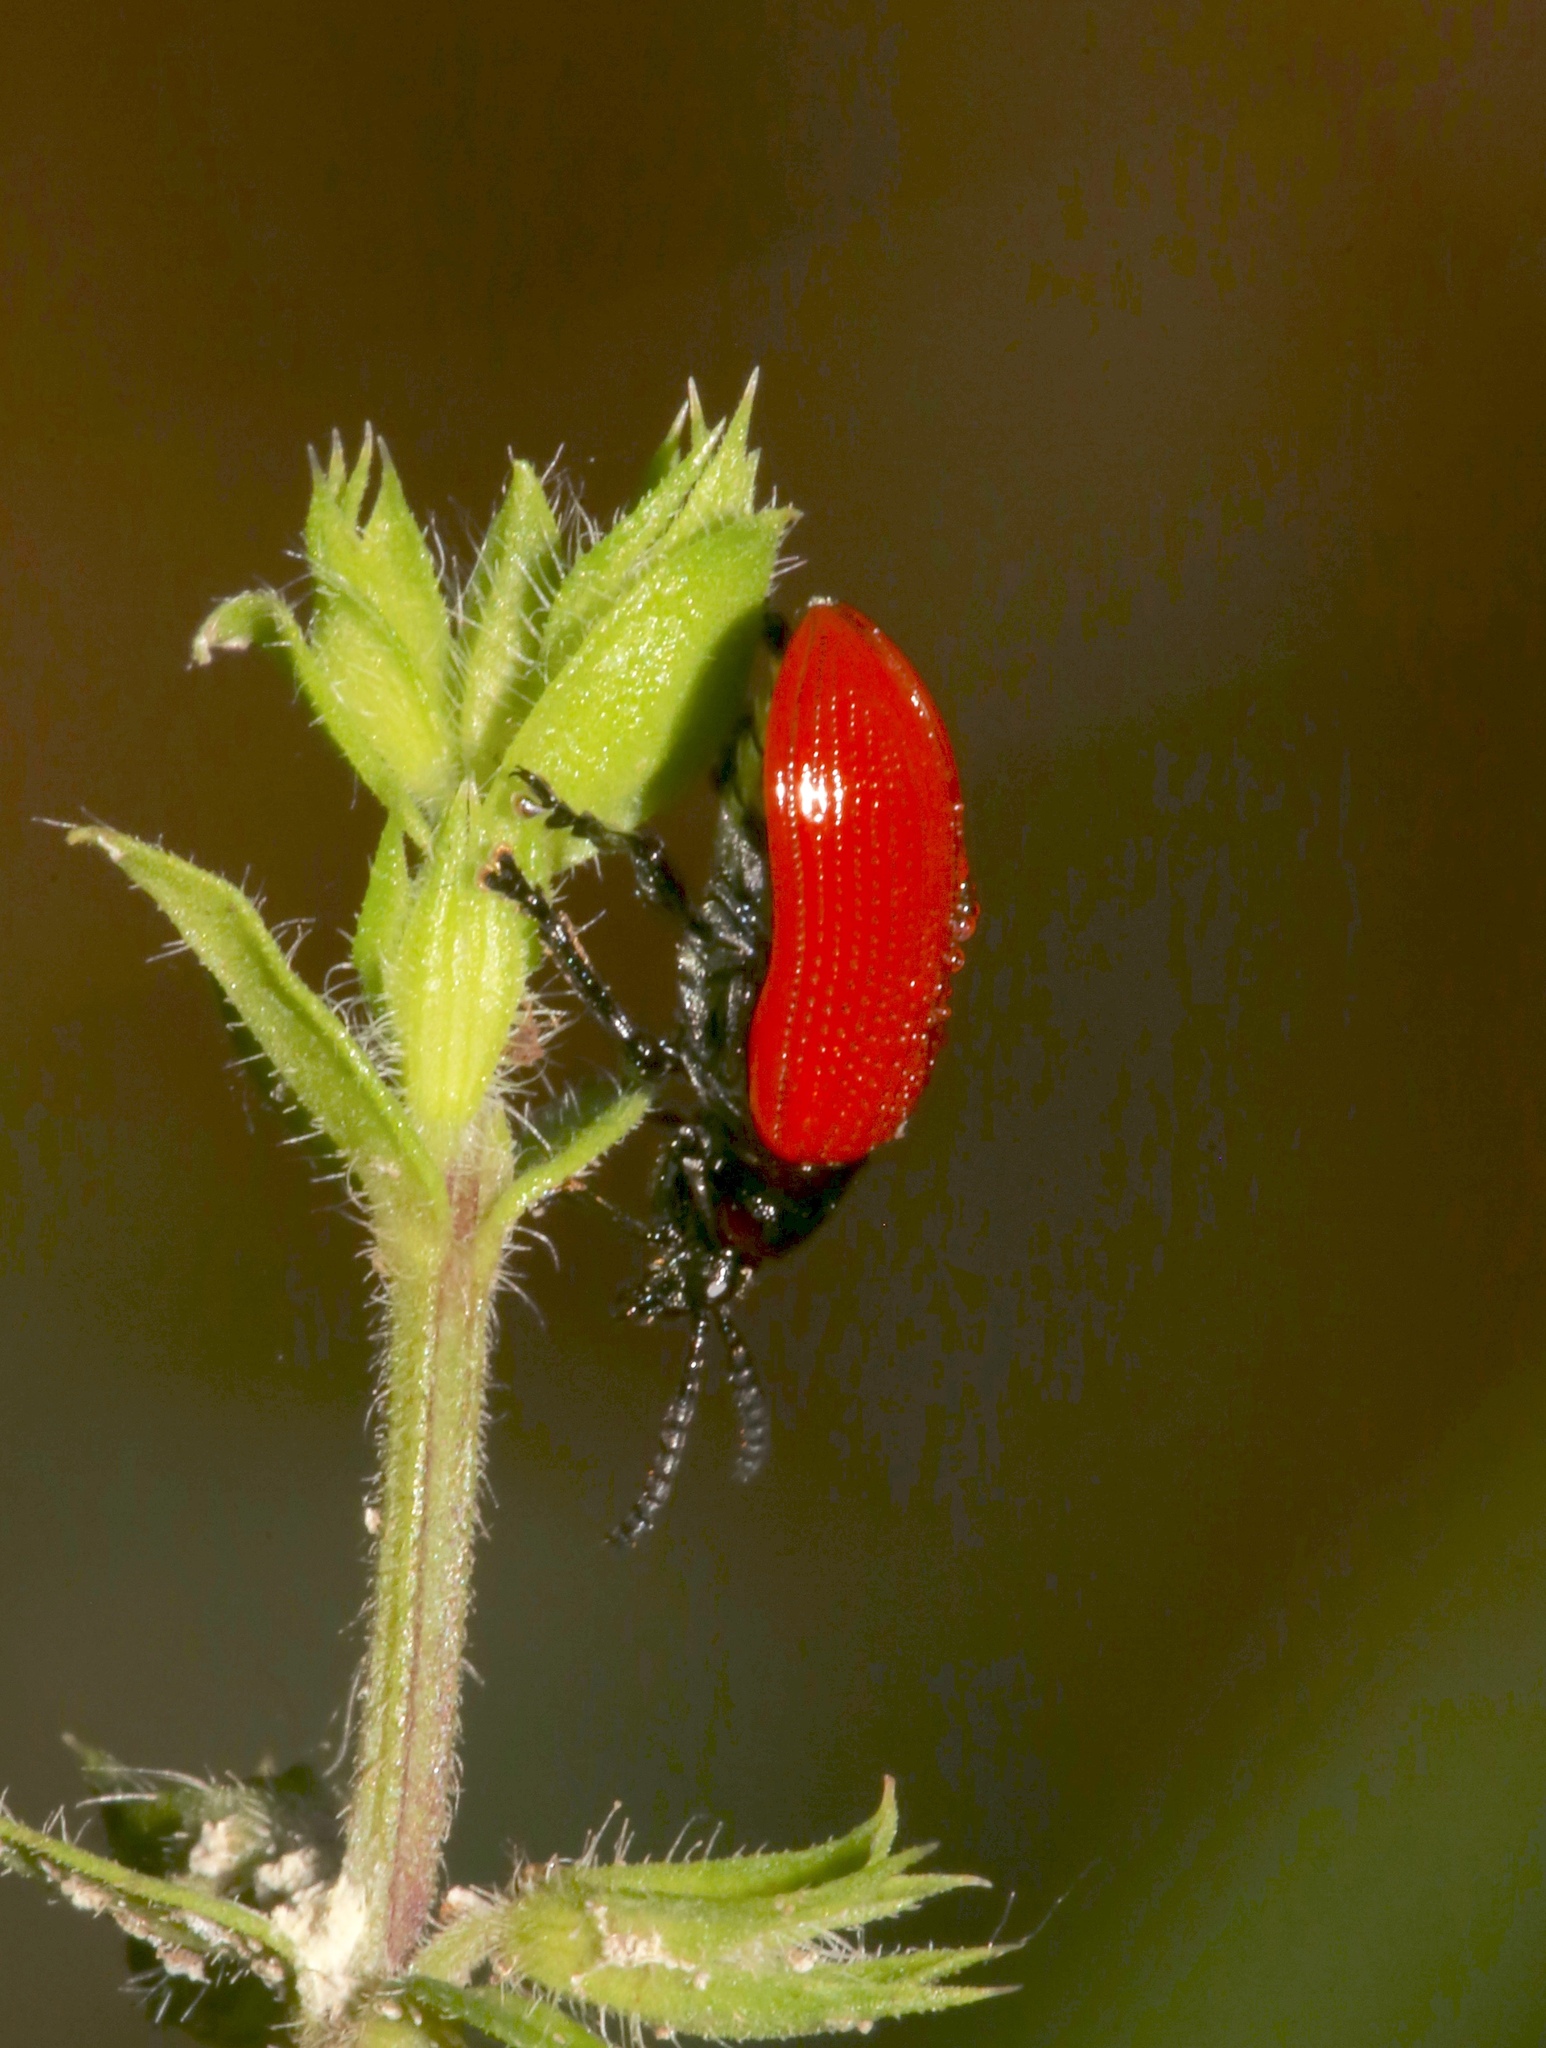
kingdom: Animalia
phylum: Arthropoda
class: Insecta
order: Coleoptera
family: Chrysomelidae
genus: Lilioceris
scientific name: Lilioceris cheni
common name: Leaf beetle
